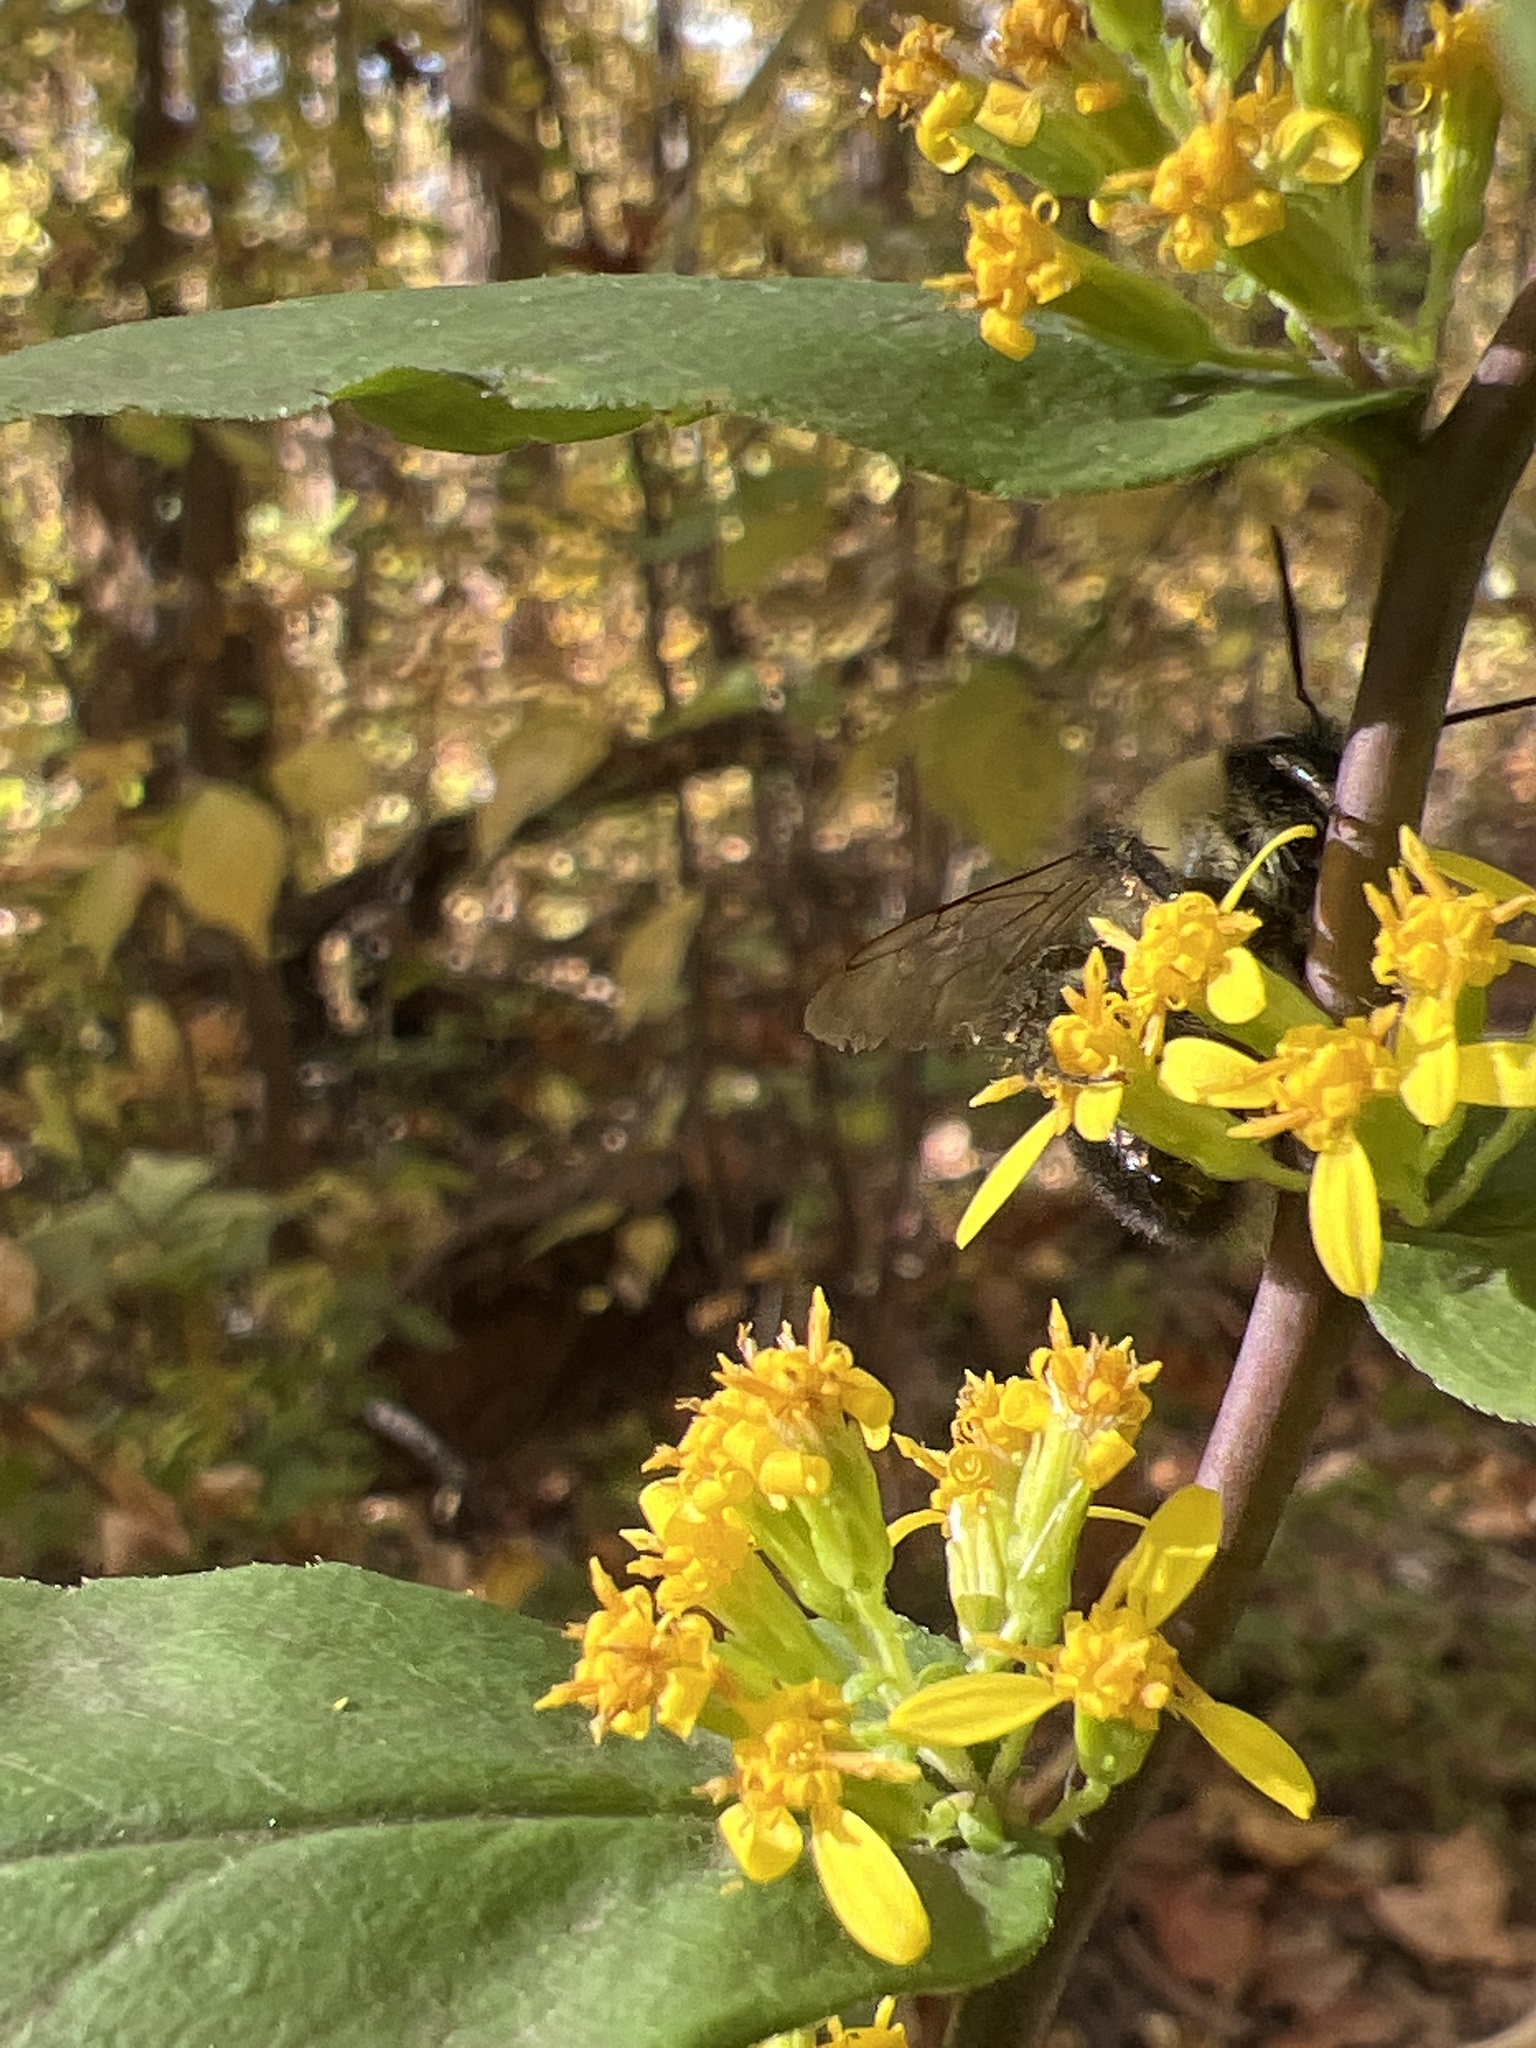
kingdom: Plantae
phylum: Tracheophyta
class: Magnoliopsida
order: Asterales
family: Asteraceae
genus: Solidago
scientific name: Solidago caesia
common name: Woodland goldenrod
